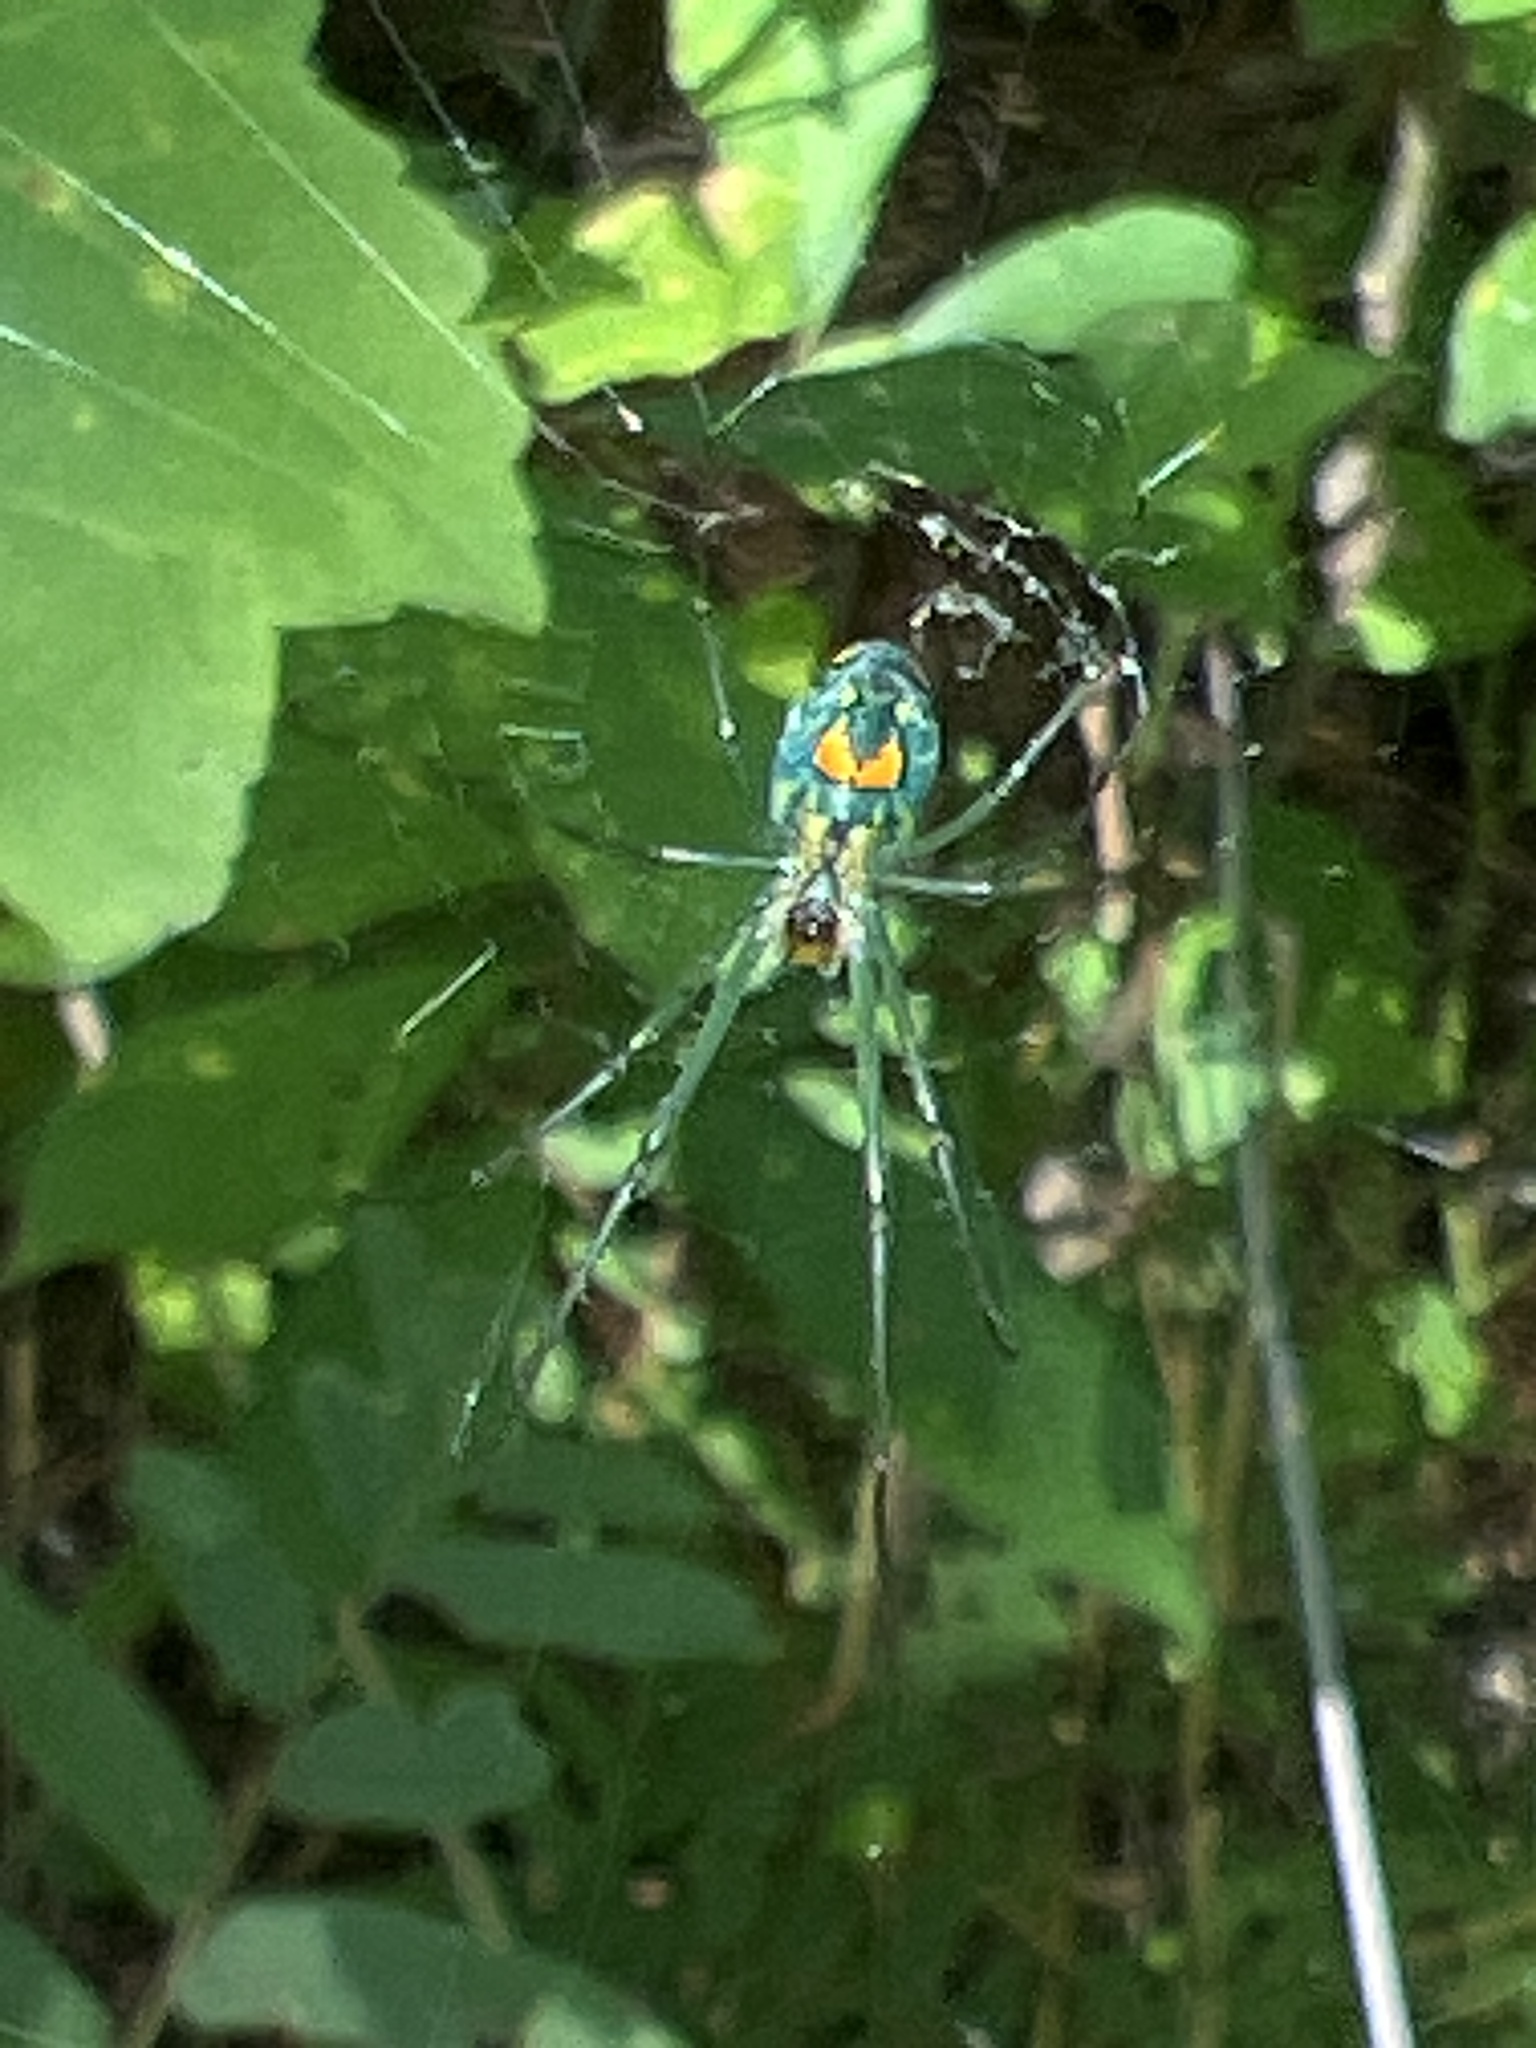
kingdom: Animalia
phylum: Arthropoda
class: Arachnida
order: Araneae
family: Tetragnathidae
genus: Leucauge
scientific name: Leucauge argyrobapta
